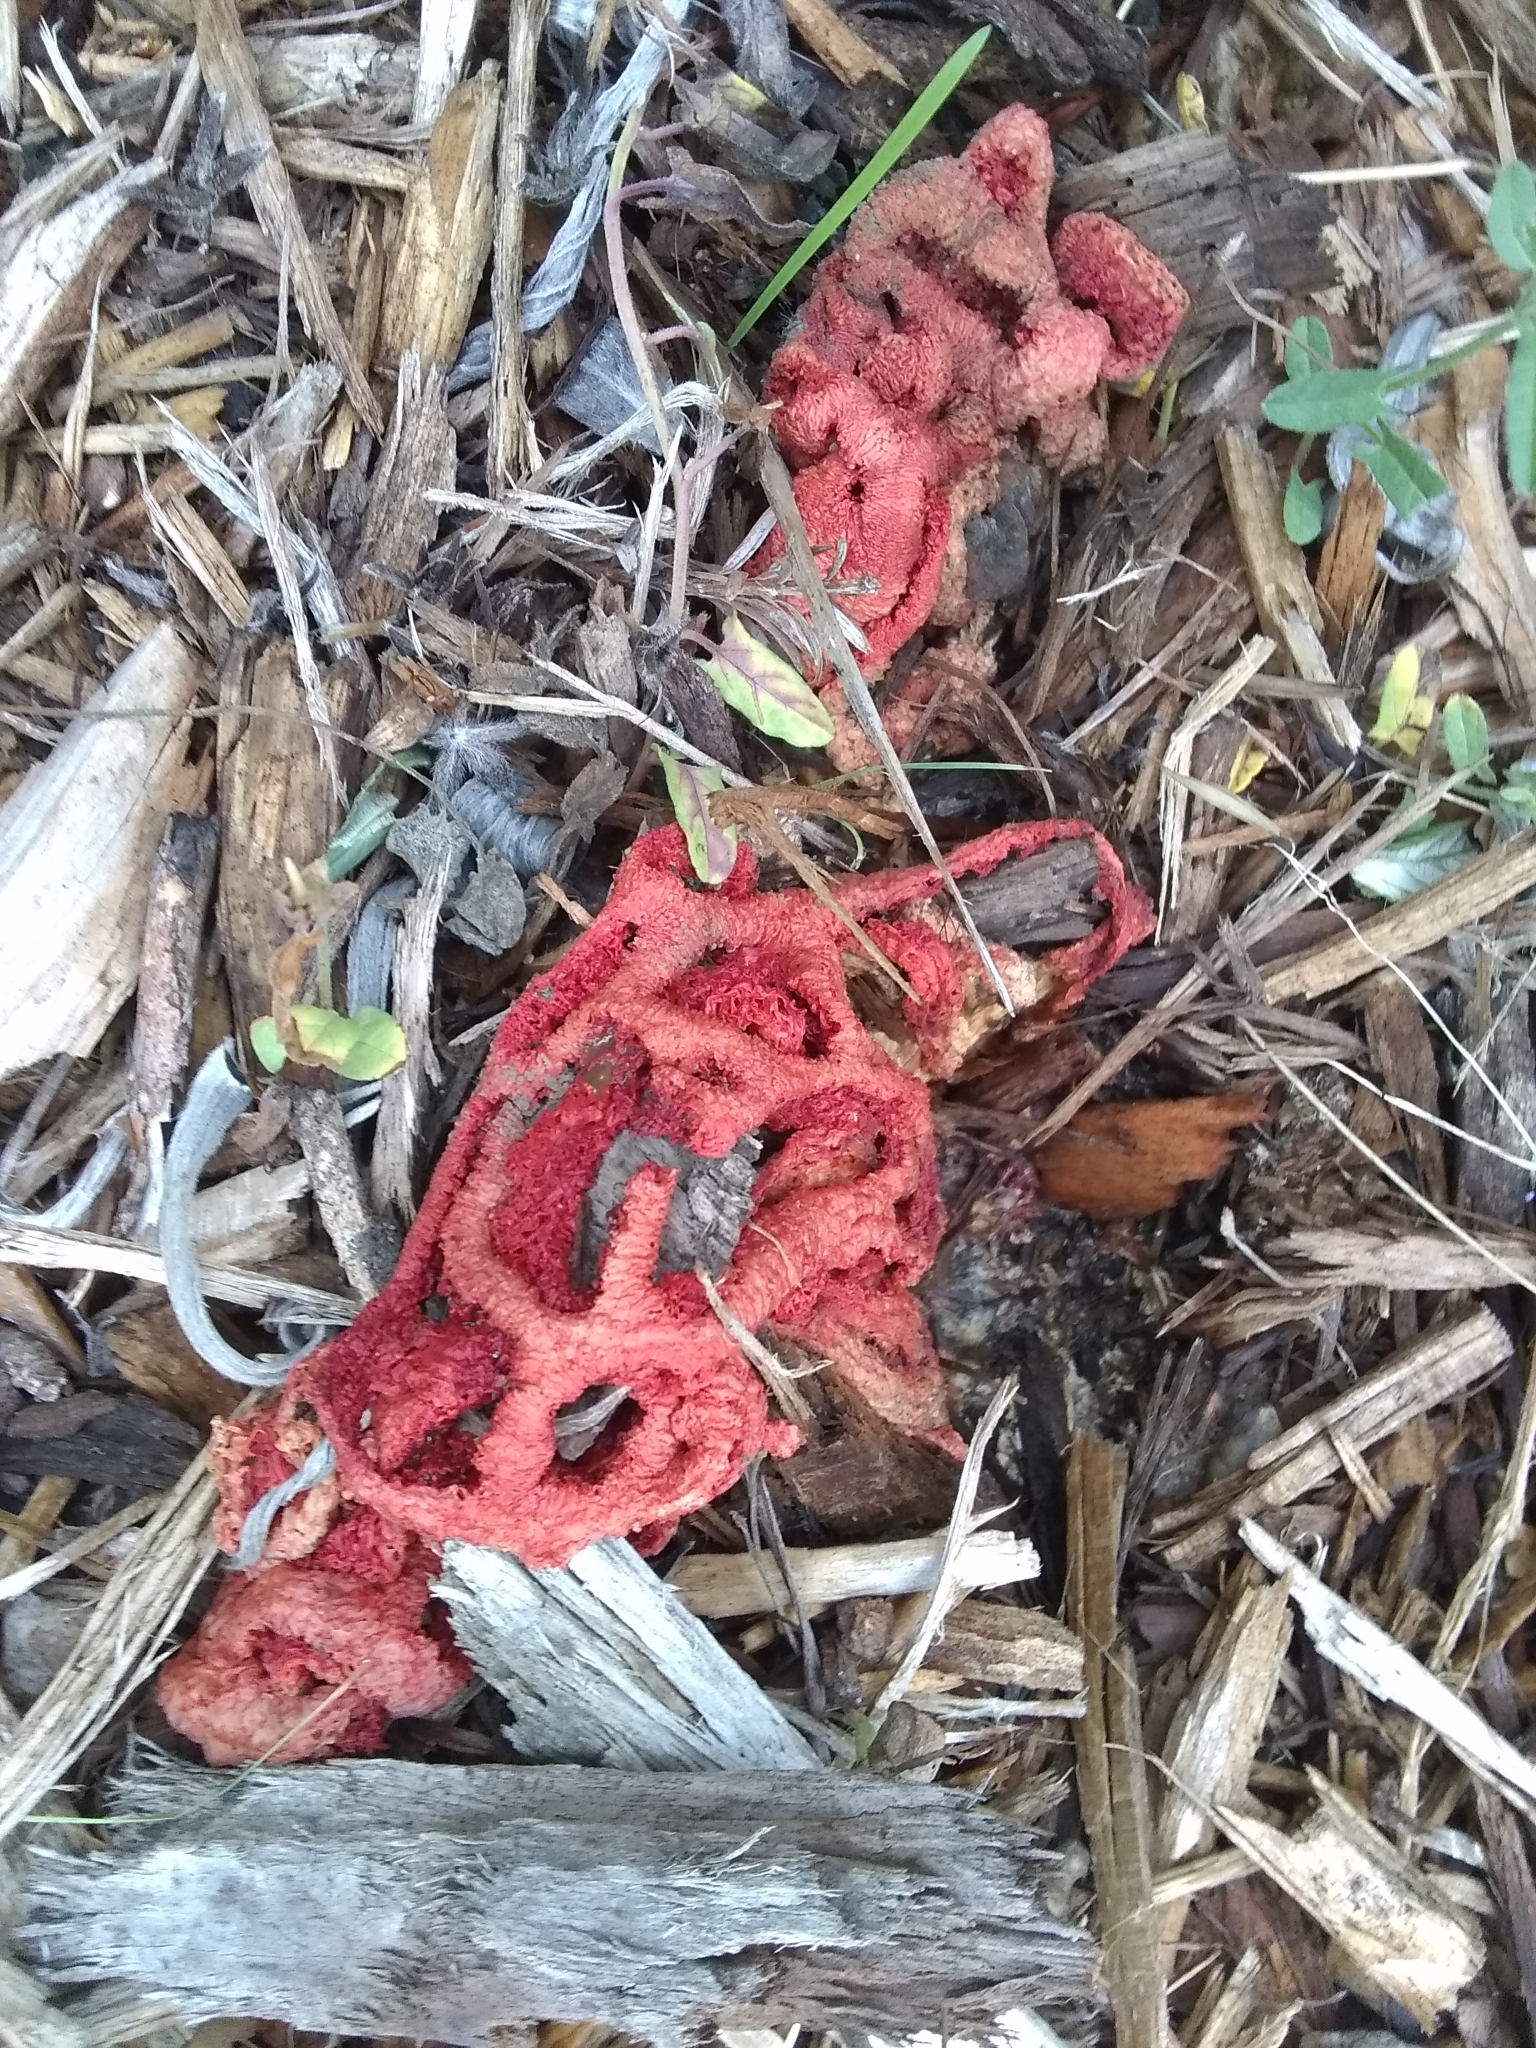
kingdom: Fungi
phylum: Basidiomycota
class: Agaricomycetes
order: Phallales
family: Phallaceae
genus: Clathrus
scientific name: Clathrus ruber
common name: Red cage
